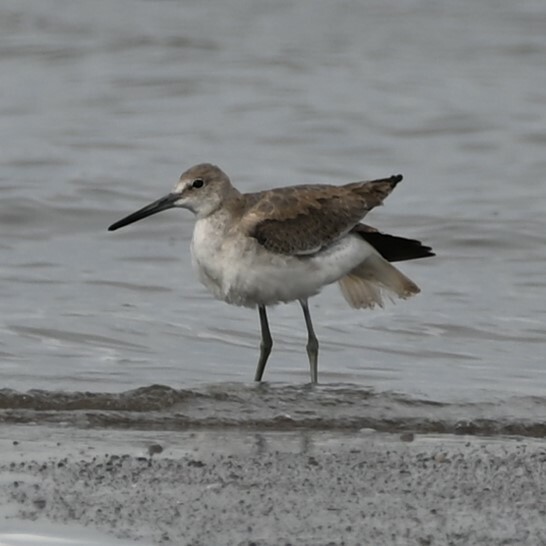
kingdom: Animalia
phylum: Chordata
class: Aves
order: Charadriiformes
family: Scolopacidae
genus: Tringa
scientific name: Tringa semipalmata
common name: Willet
